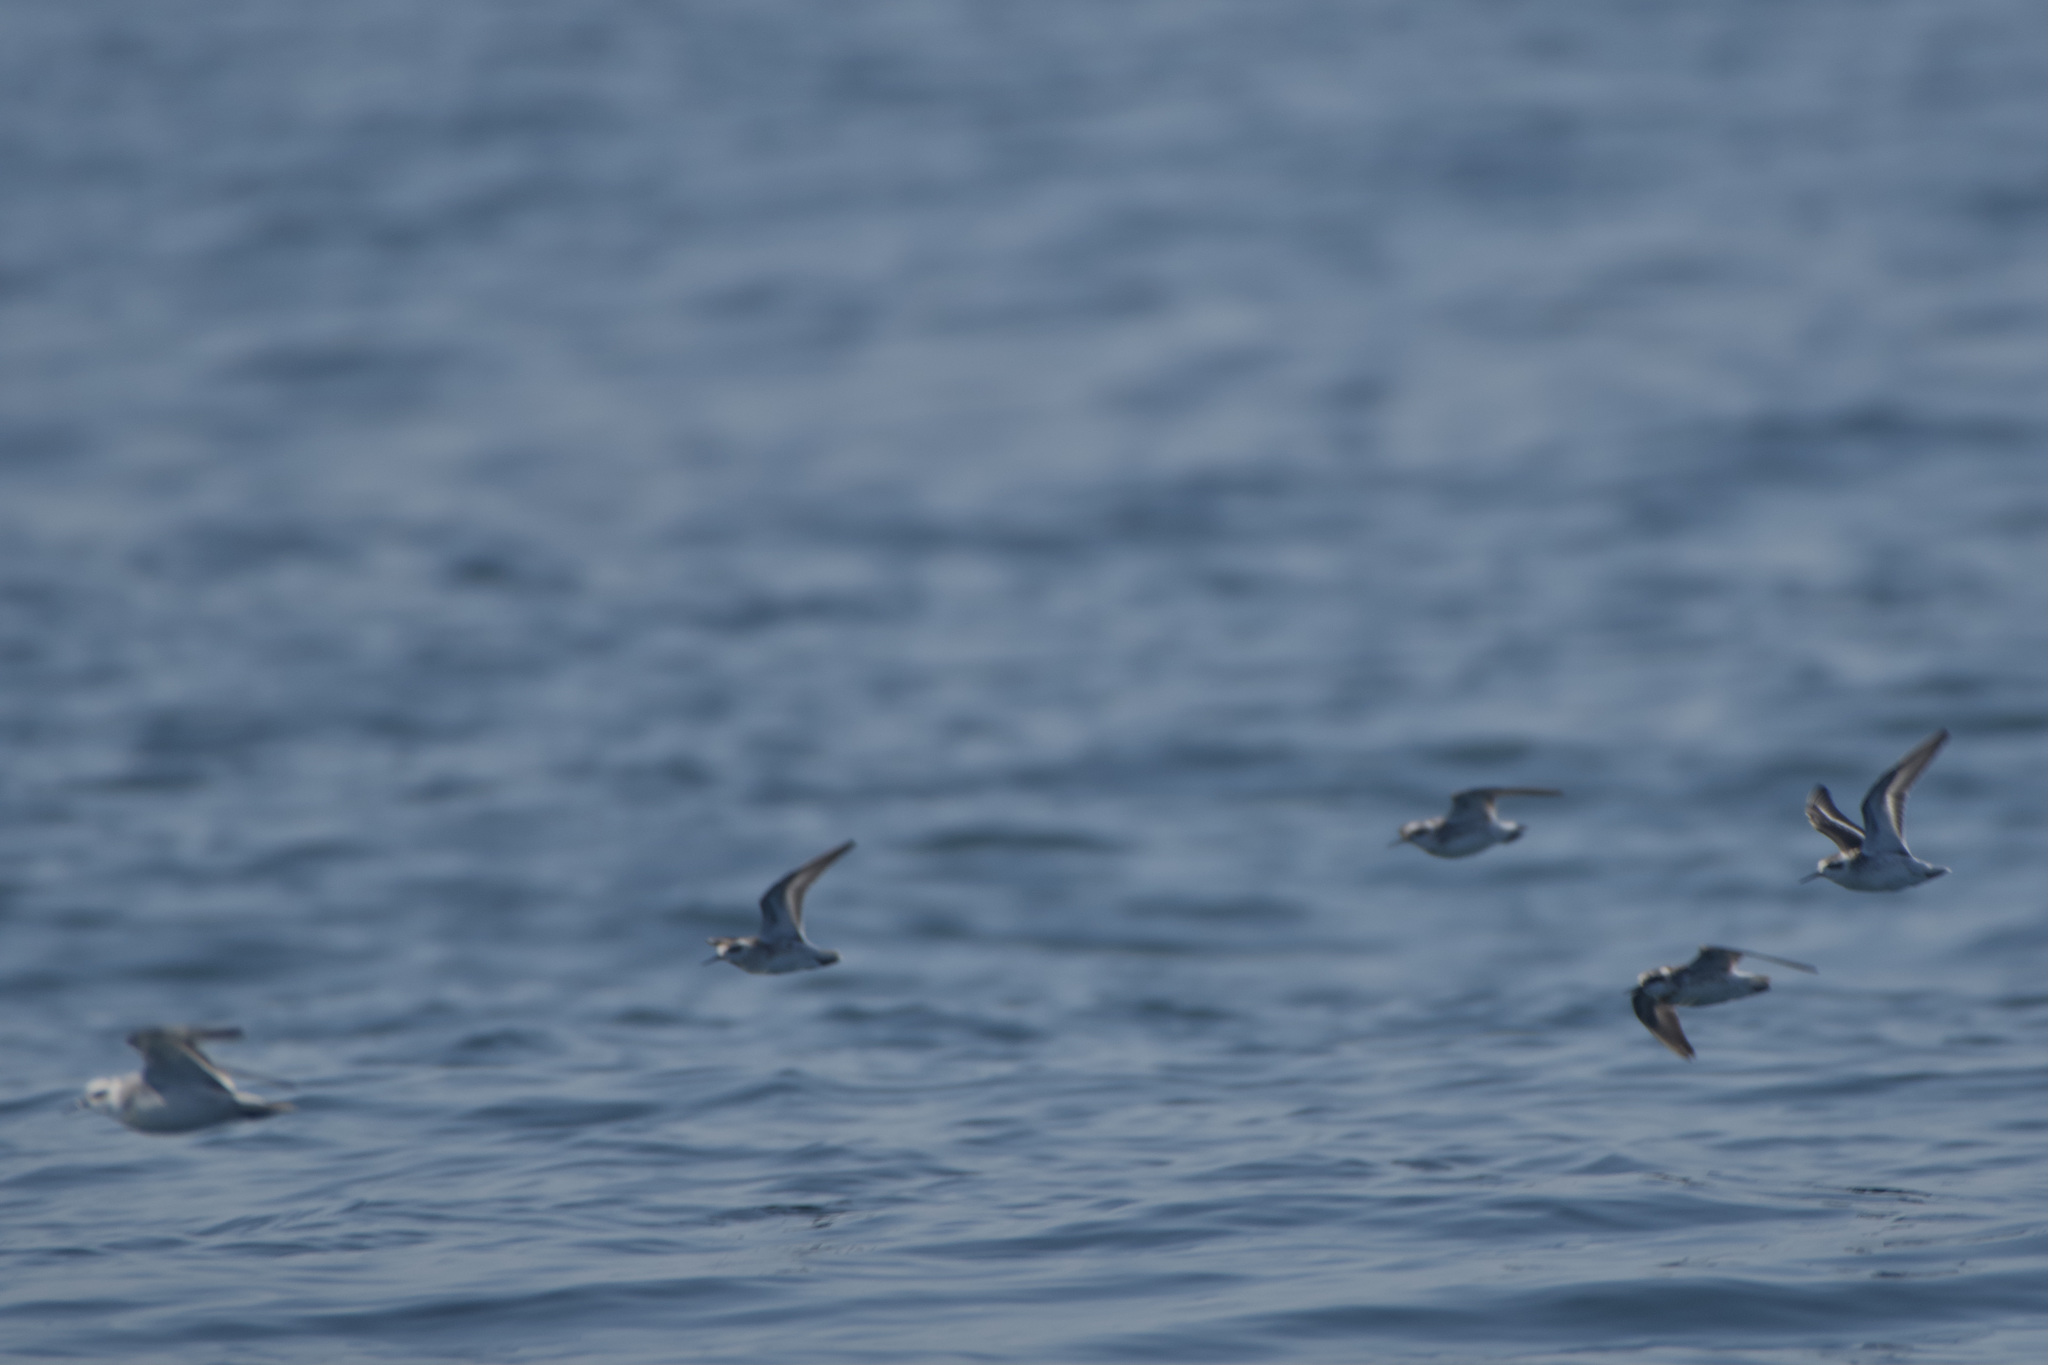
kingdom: Animalia
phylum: Chordata
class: Aves
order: Charadriiformes
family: Scolopacidae
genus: Phalaropus
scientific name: Phalaropus fulicarius
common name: Red phalarope
